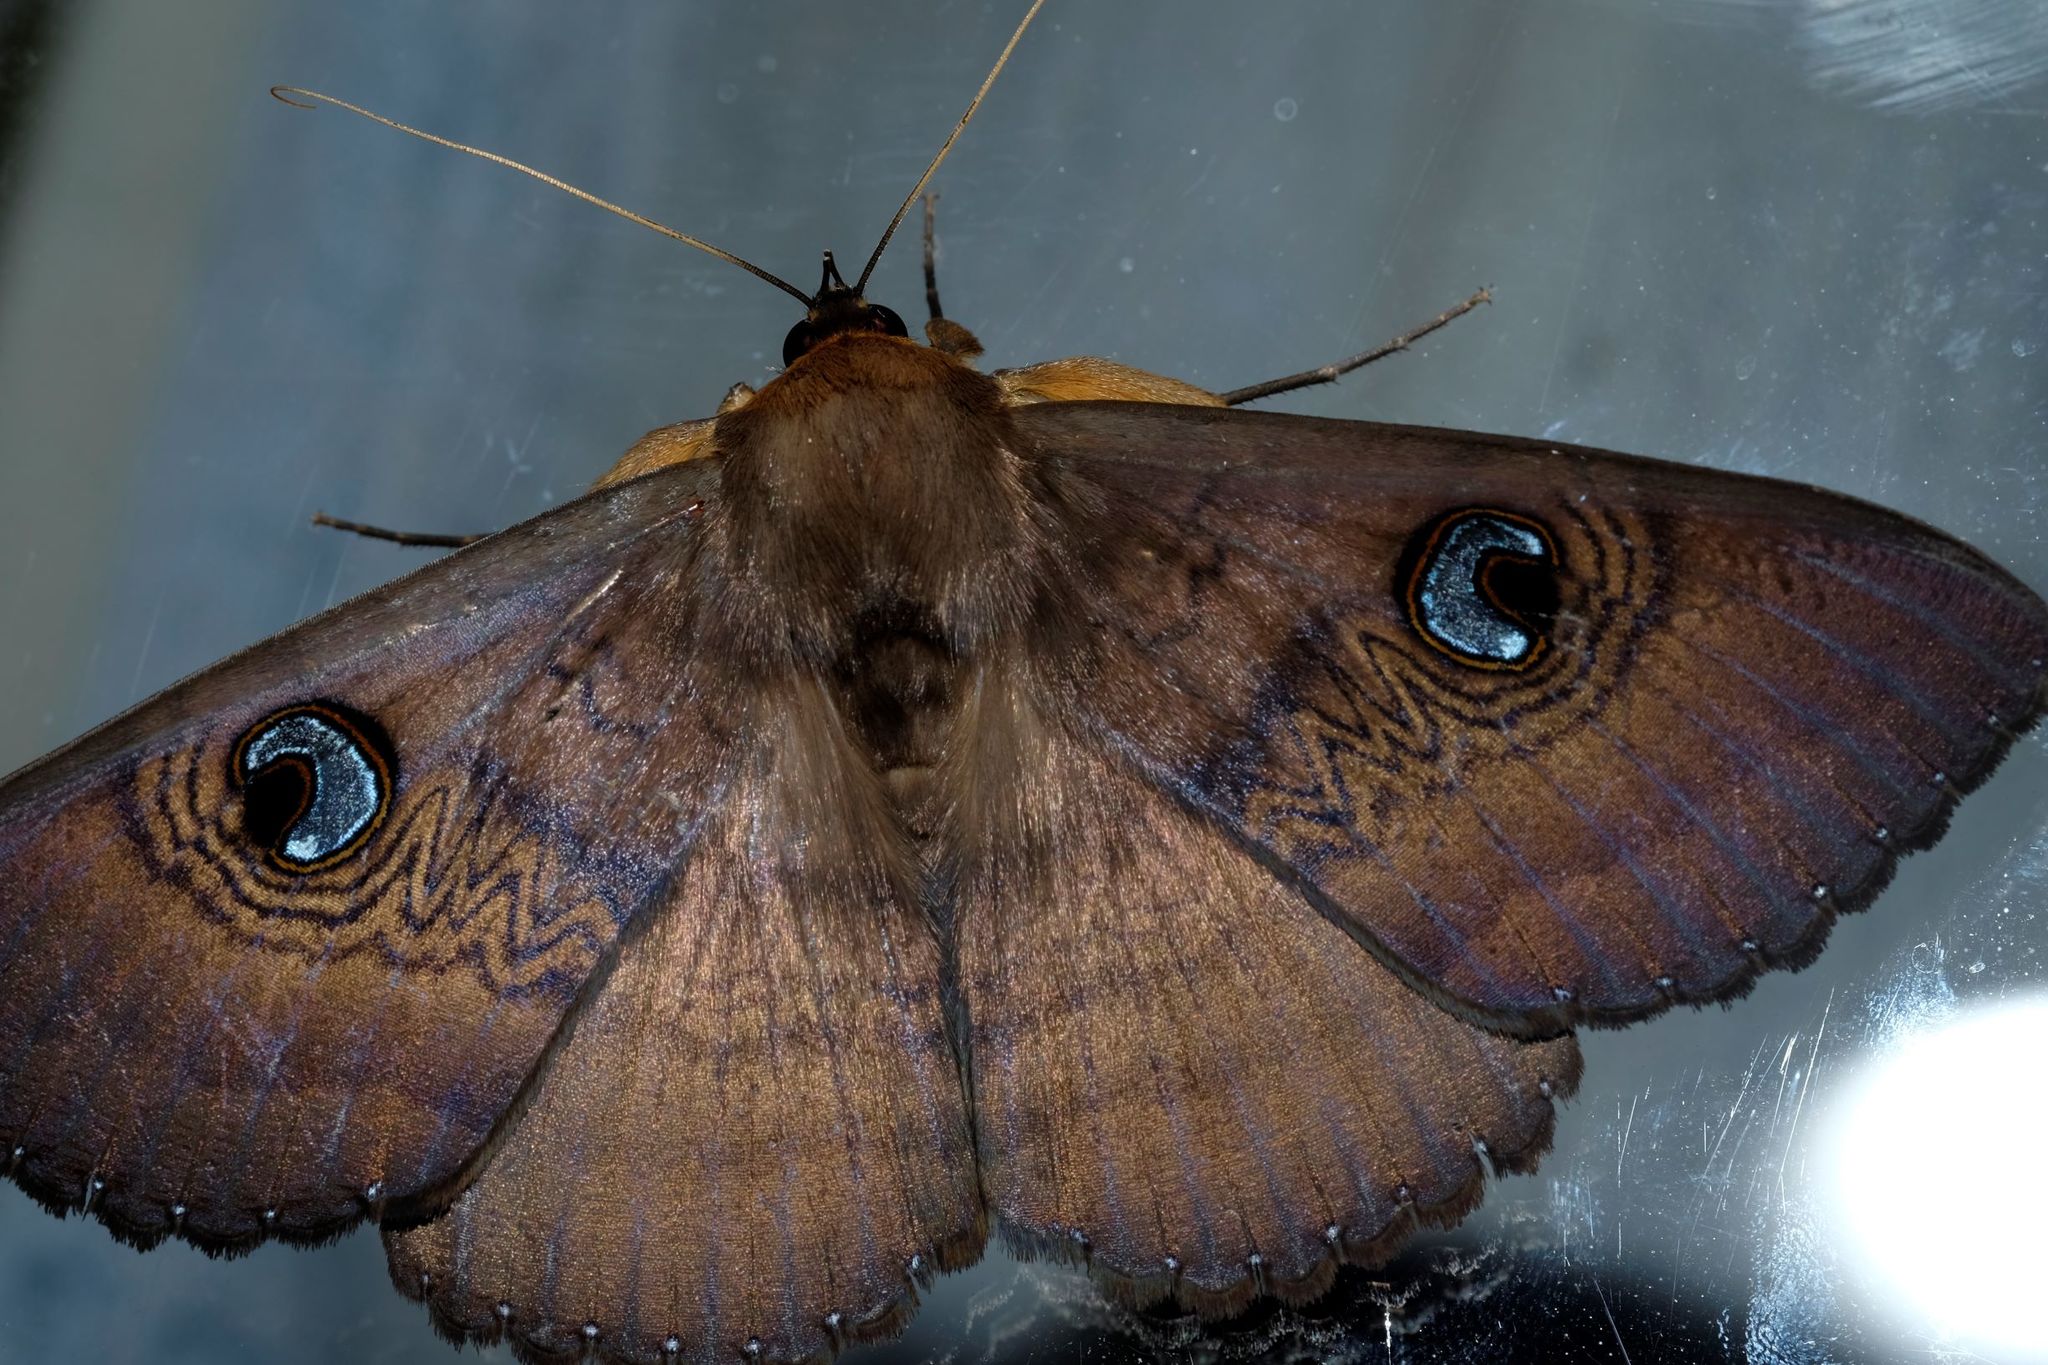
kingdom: Animalia
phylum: Arthropoda
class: Insecta
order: Lepidoptera
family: Erebidae
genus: Dasypodia
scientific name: Dasypodia selenophora
